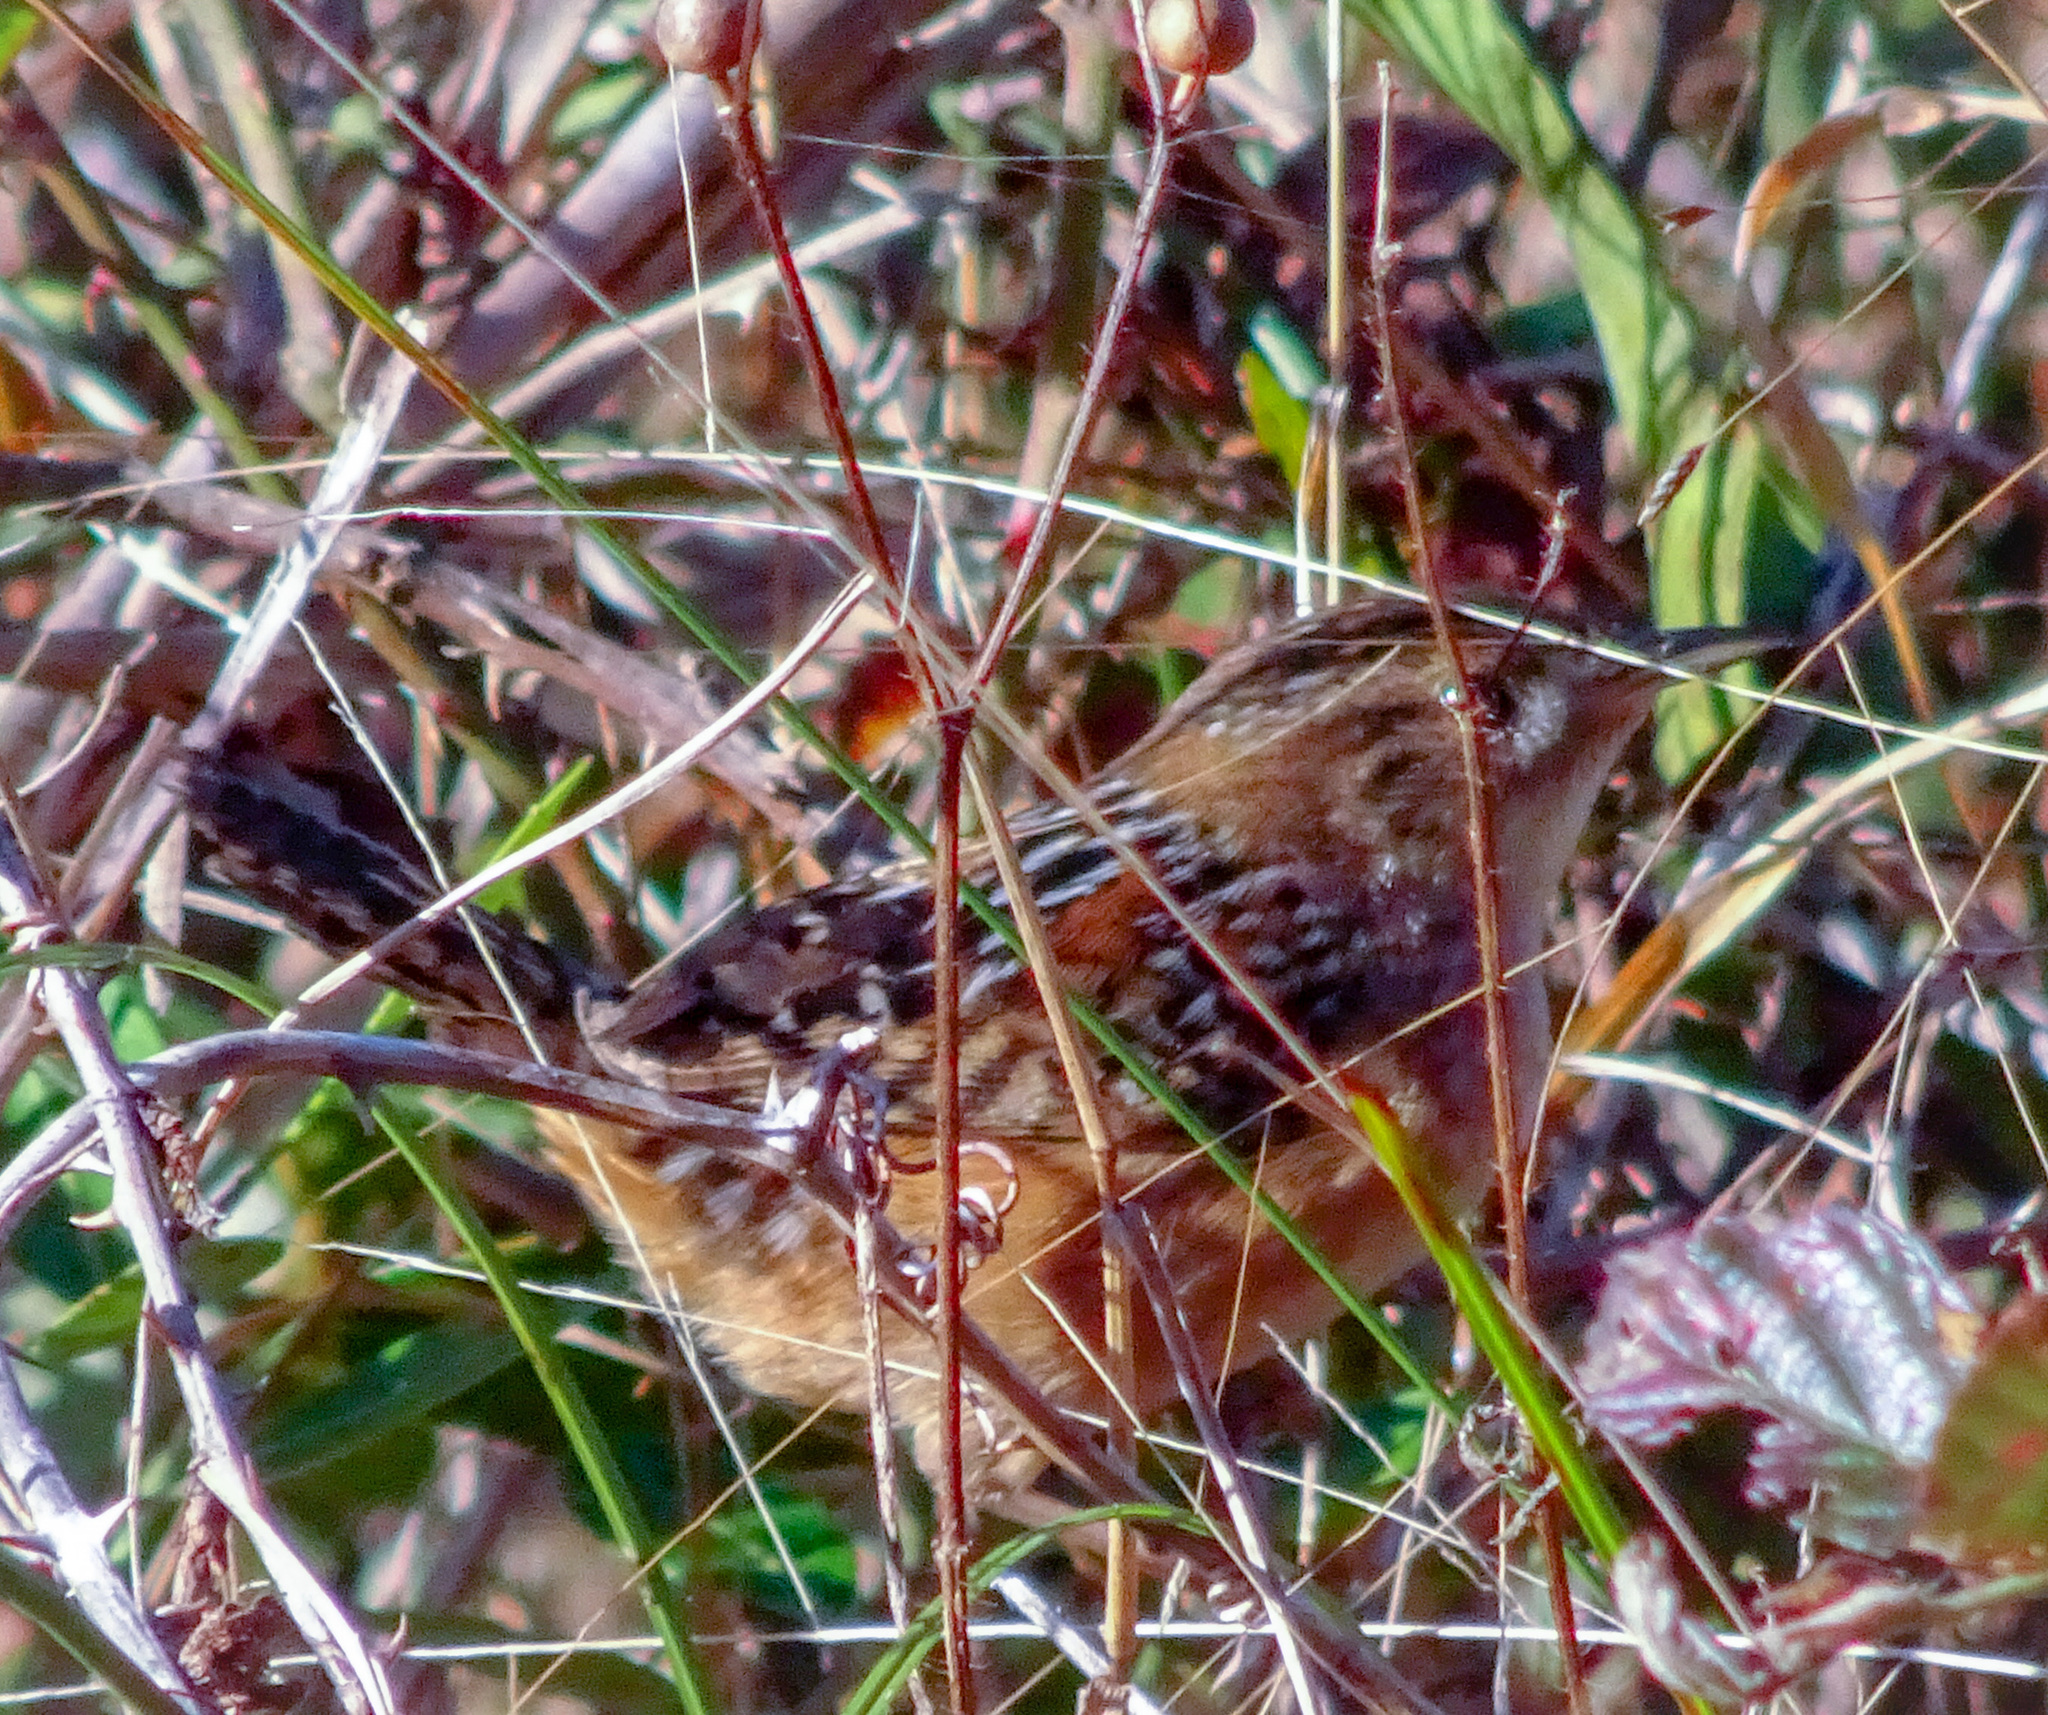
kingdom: Animalia
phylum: Chordata
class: Aves
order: Passeriformes
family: Troglodytidae
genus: Cistothorus
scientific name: Cistothorus platensis
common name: Sedge wren
